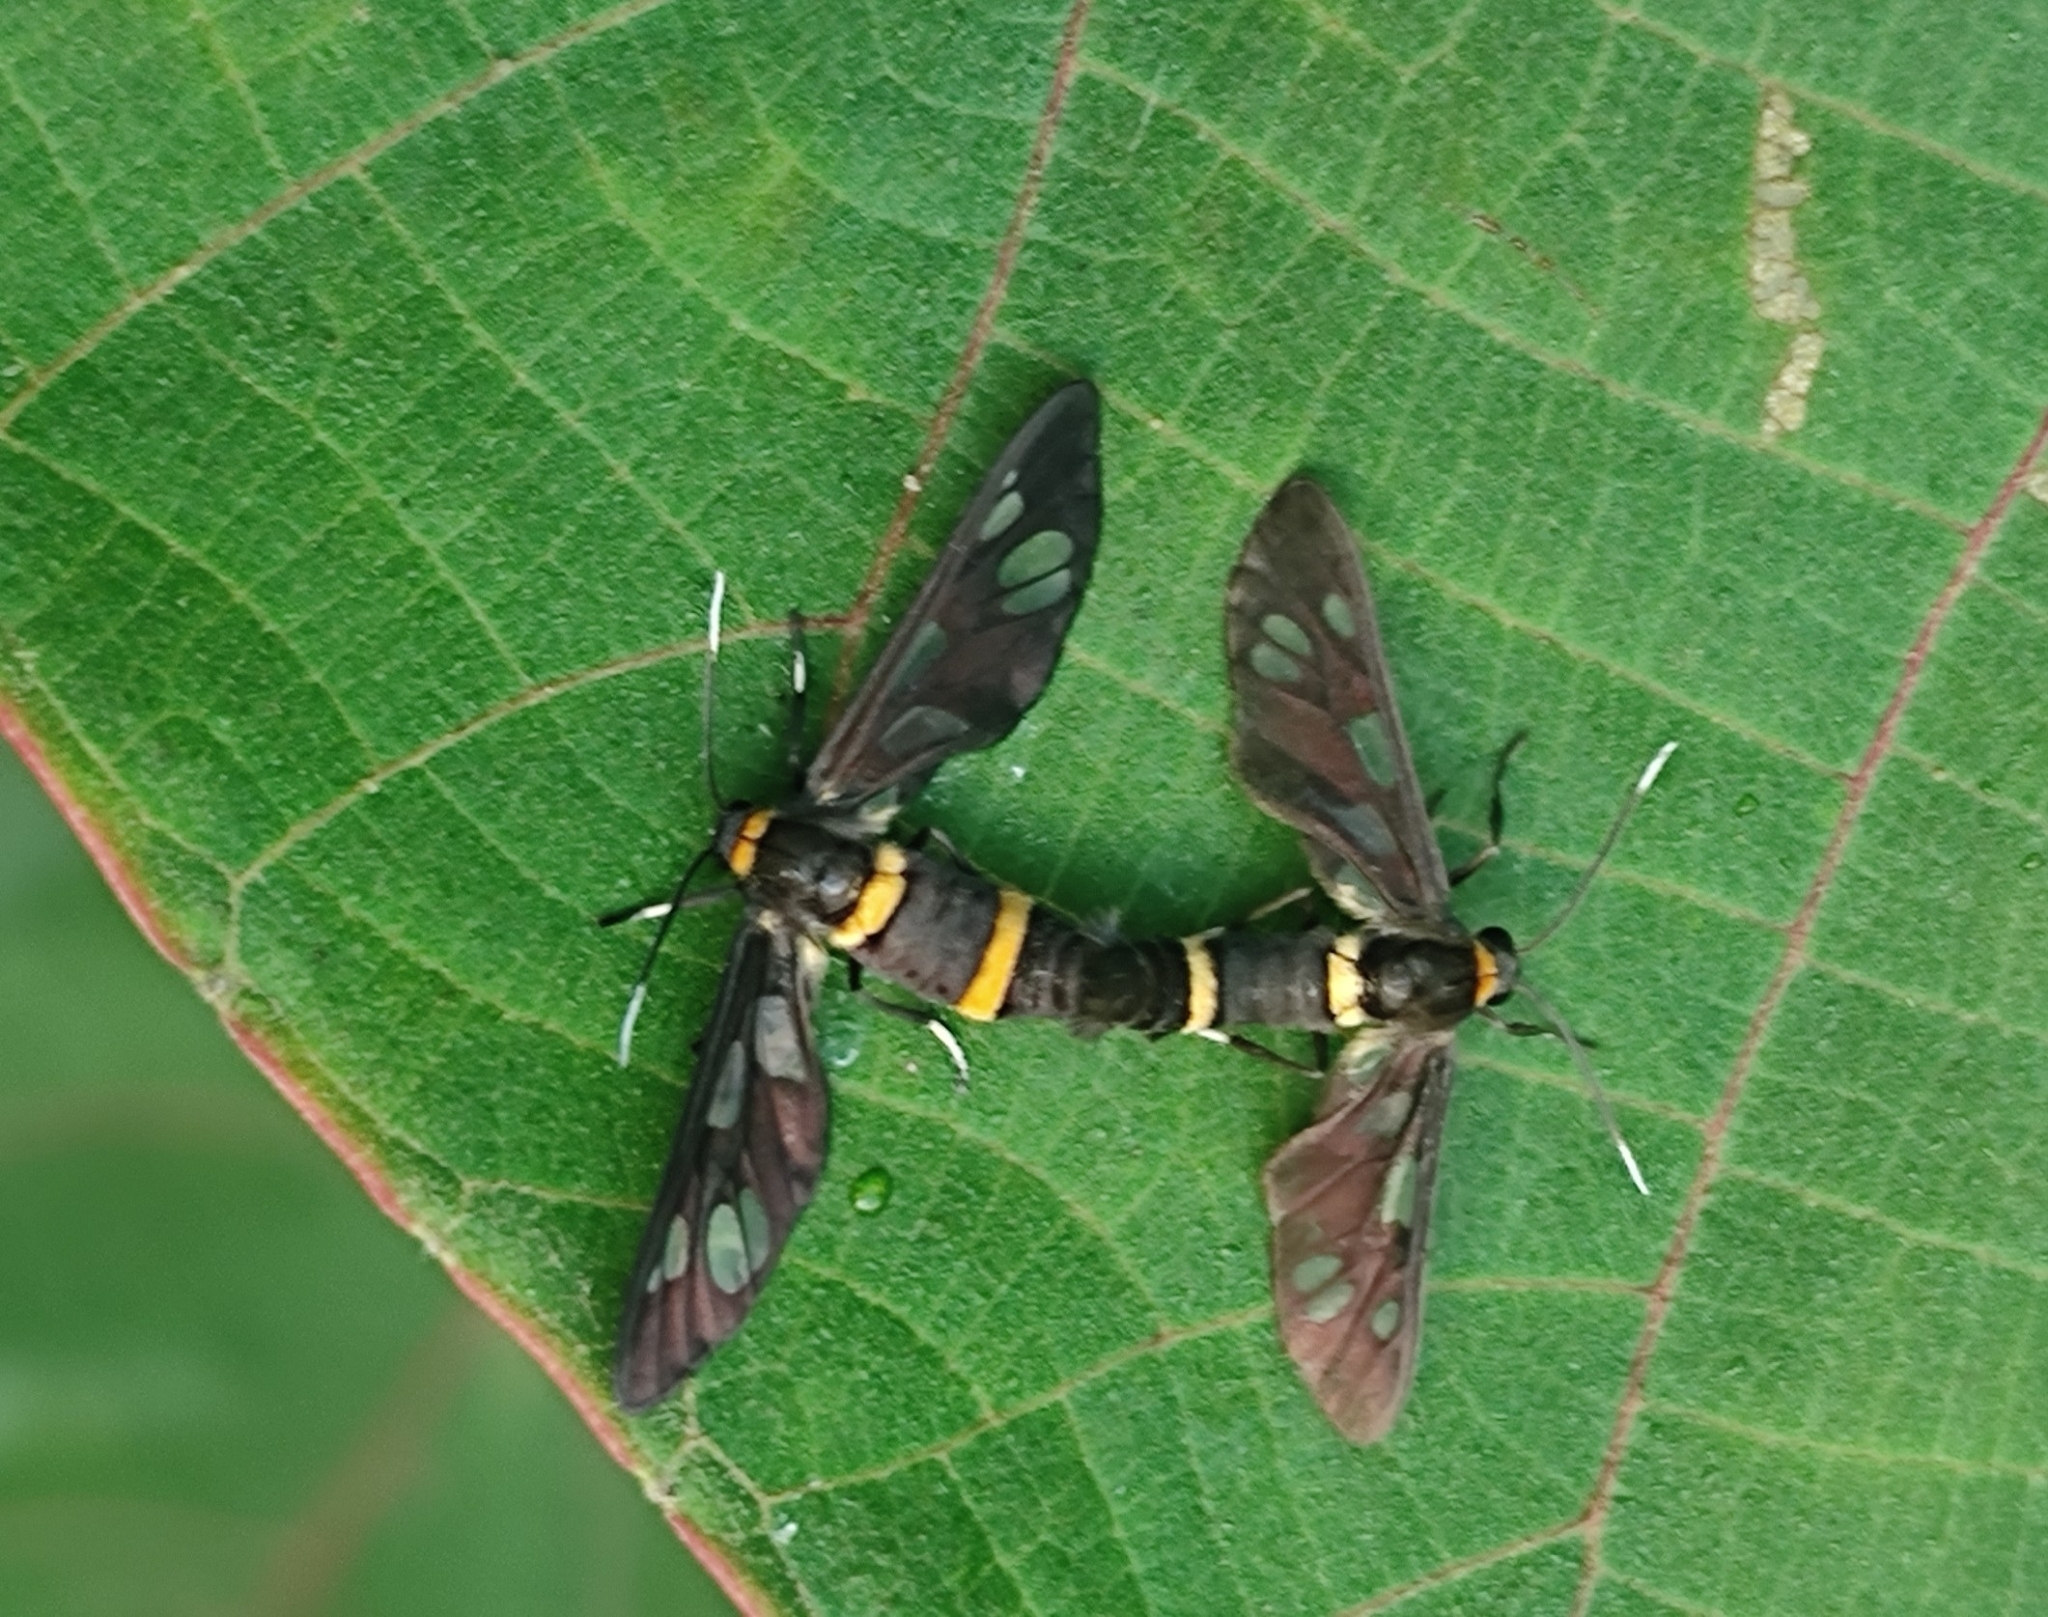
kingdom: Animalia
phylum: Arthropoda
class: Insecta
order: Lepidoptera
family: Erebidae
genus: Syntomoides
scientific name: Syntomoides imaon
